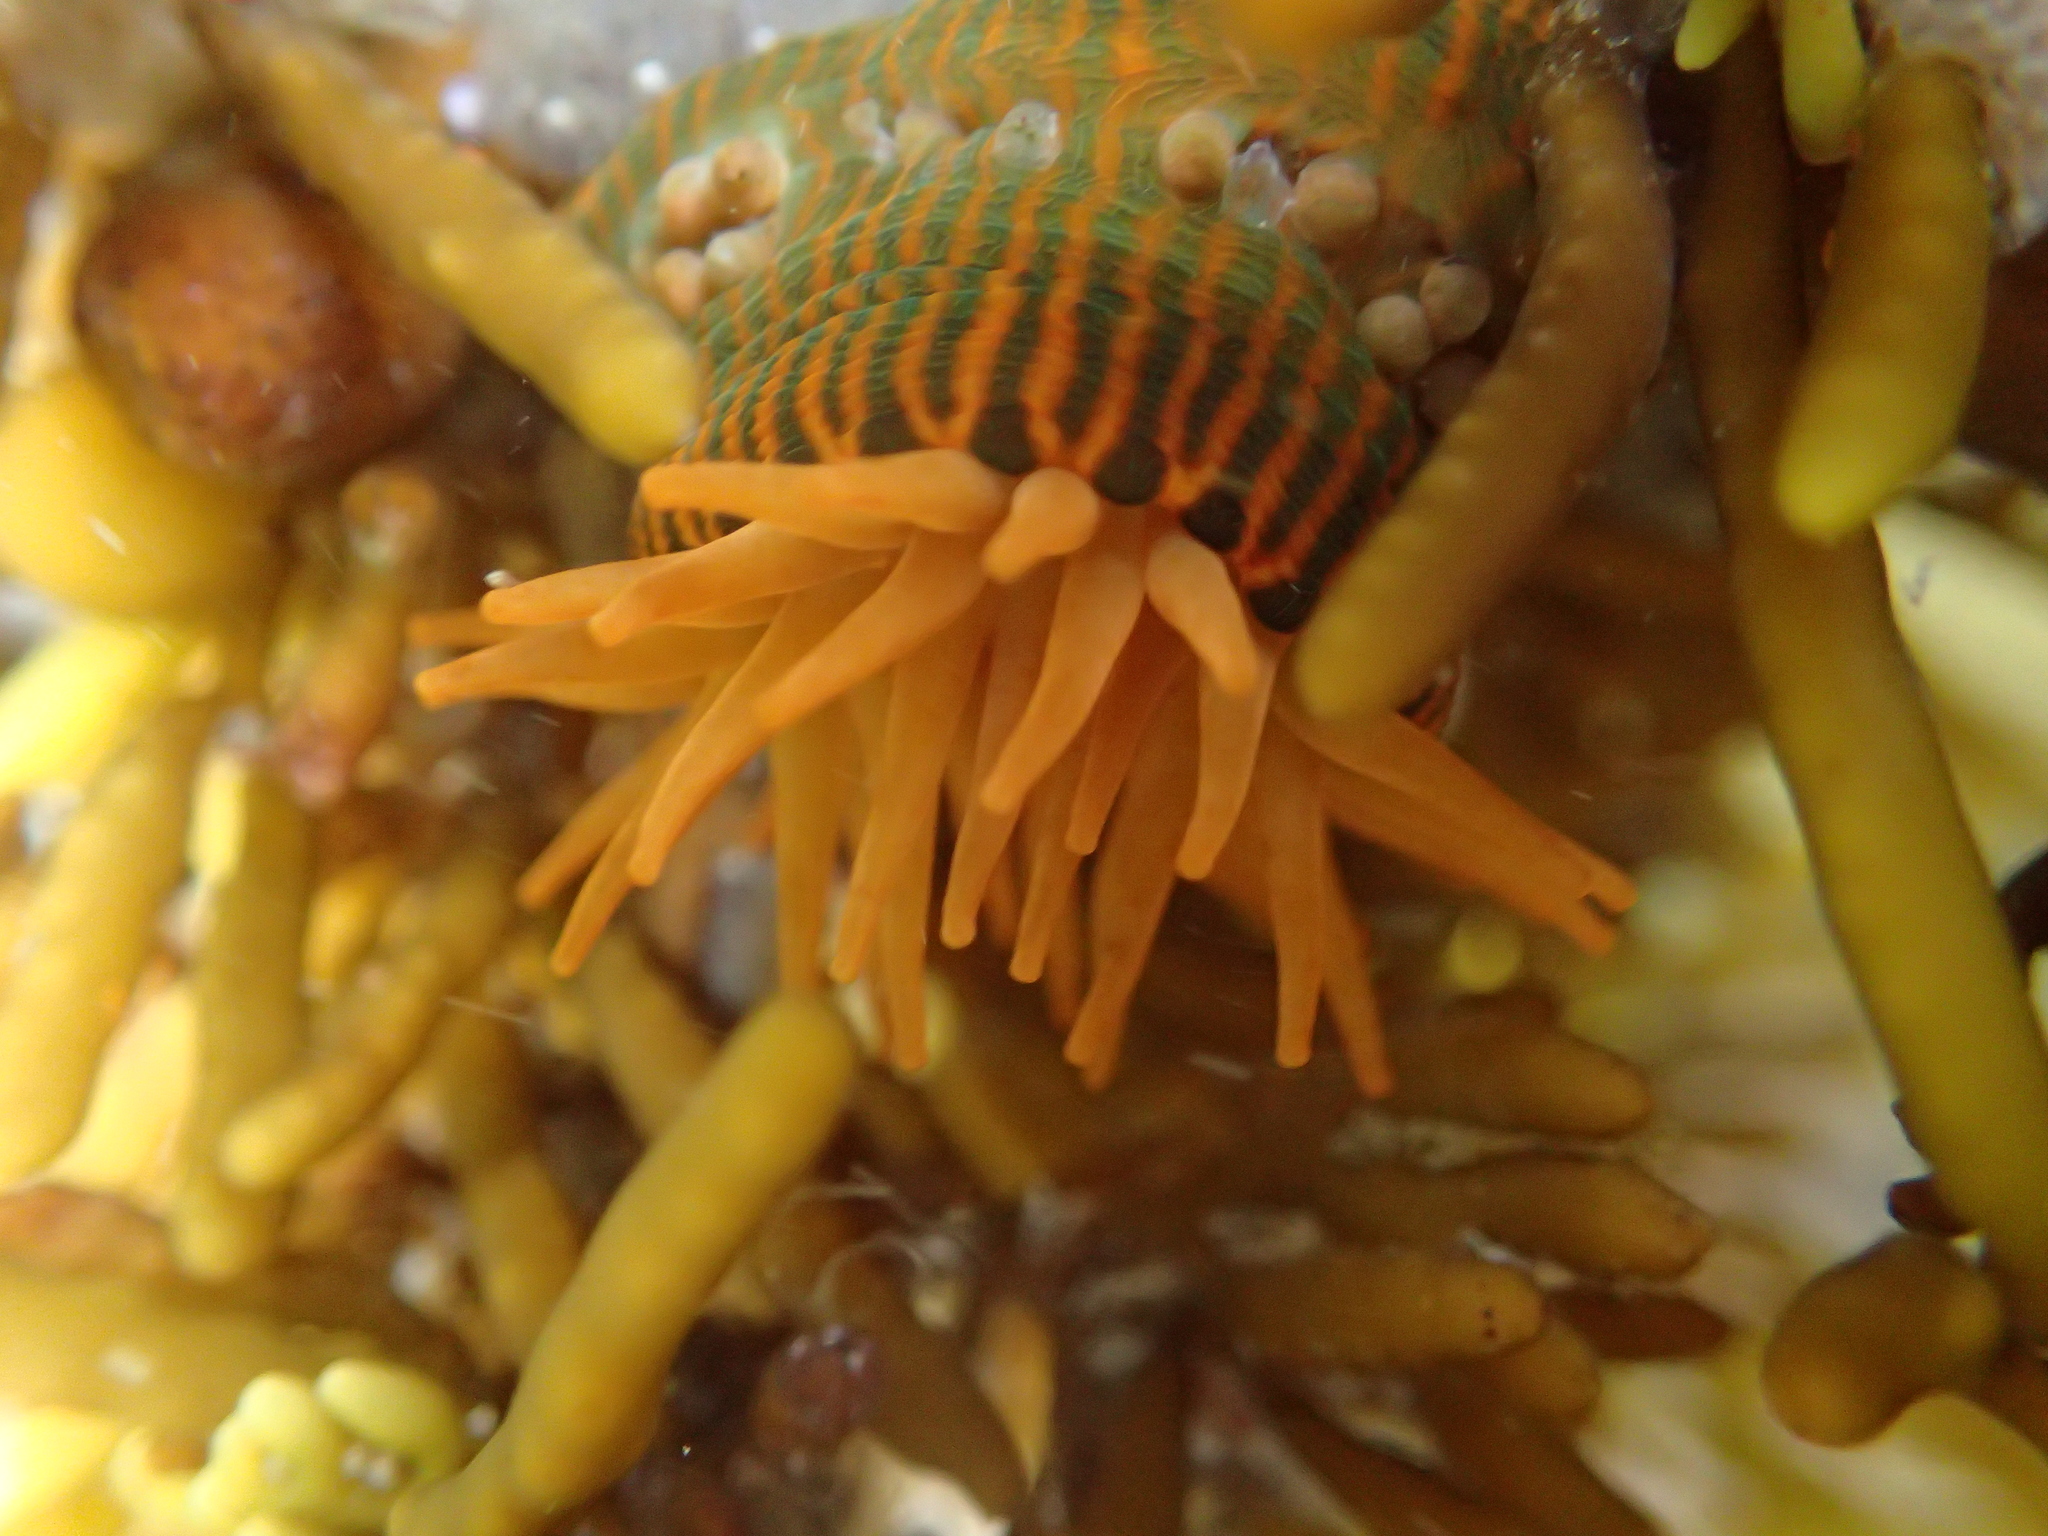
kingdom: Animalia
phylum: Cnidaria
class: Anthozoa
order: Actiniaria
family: Actiniidae
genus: Epiactis
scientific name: Epiactis
